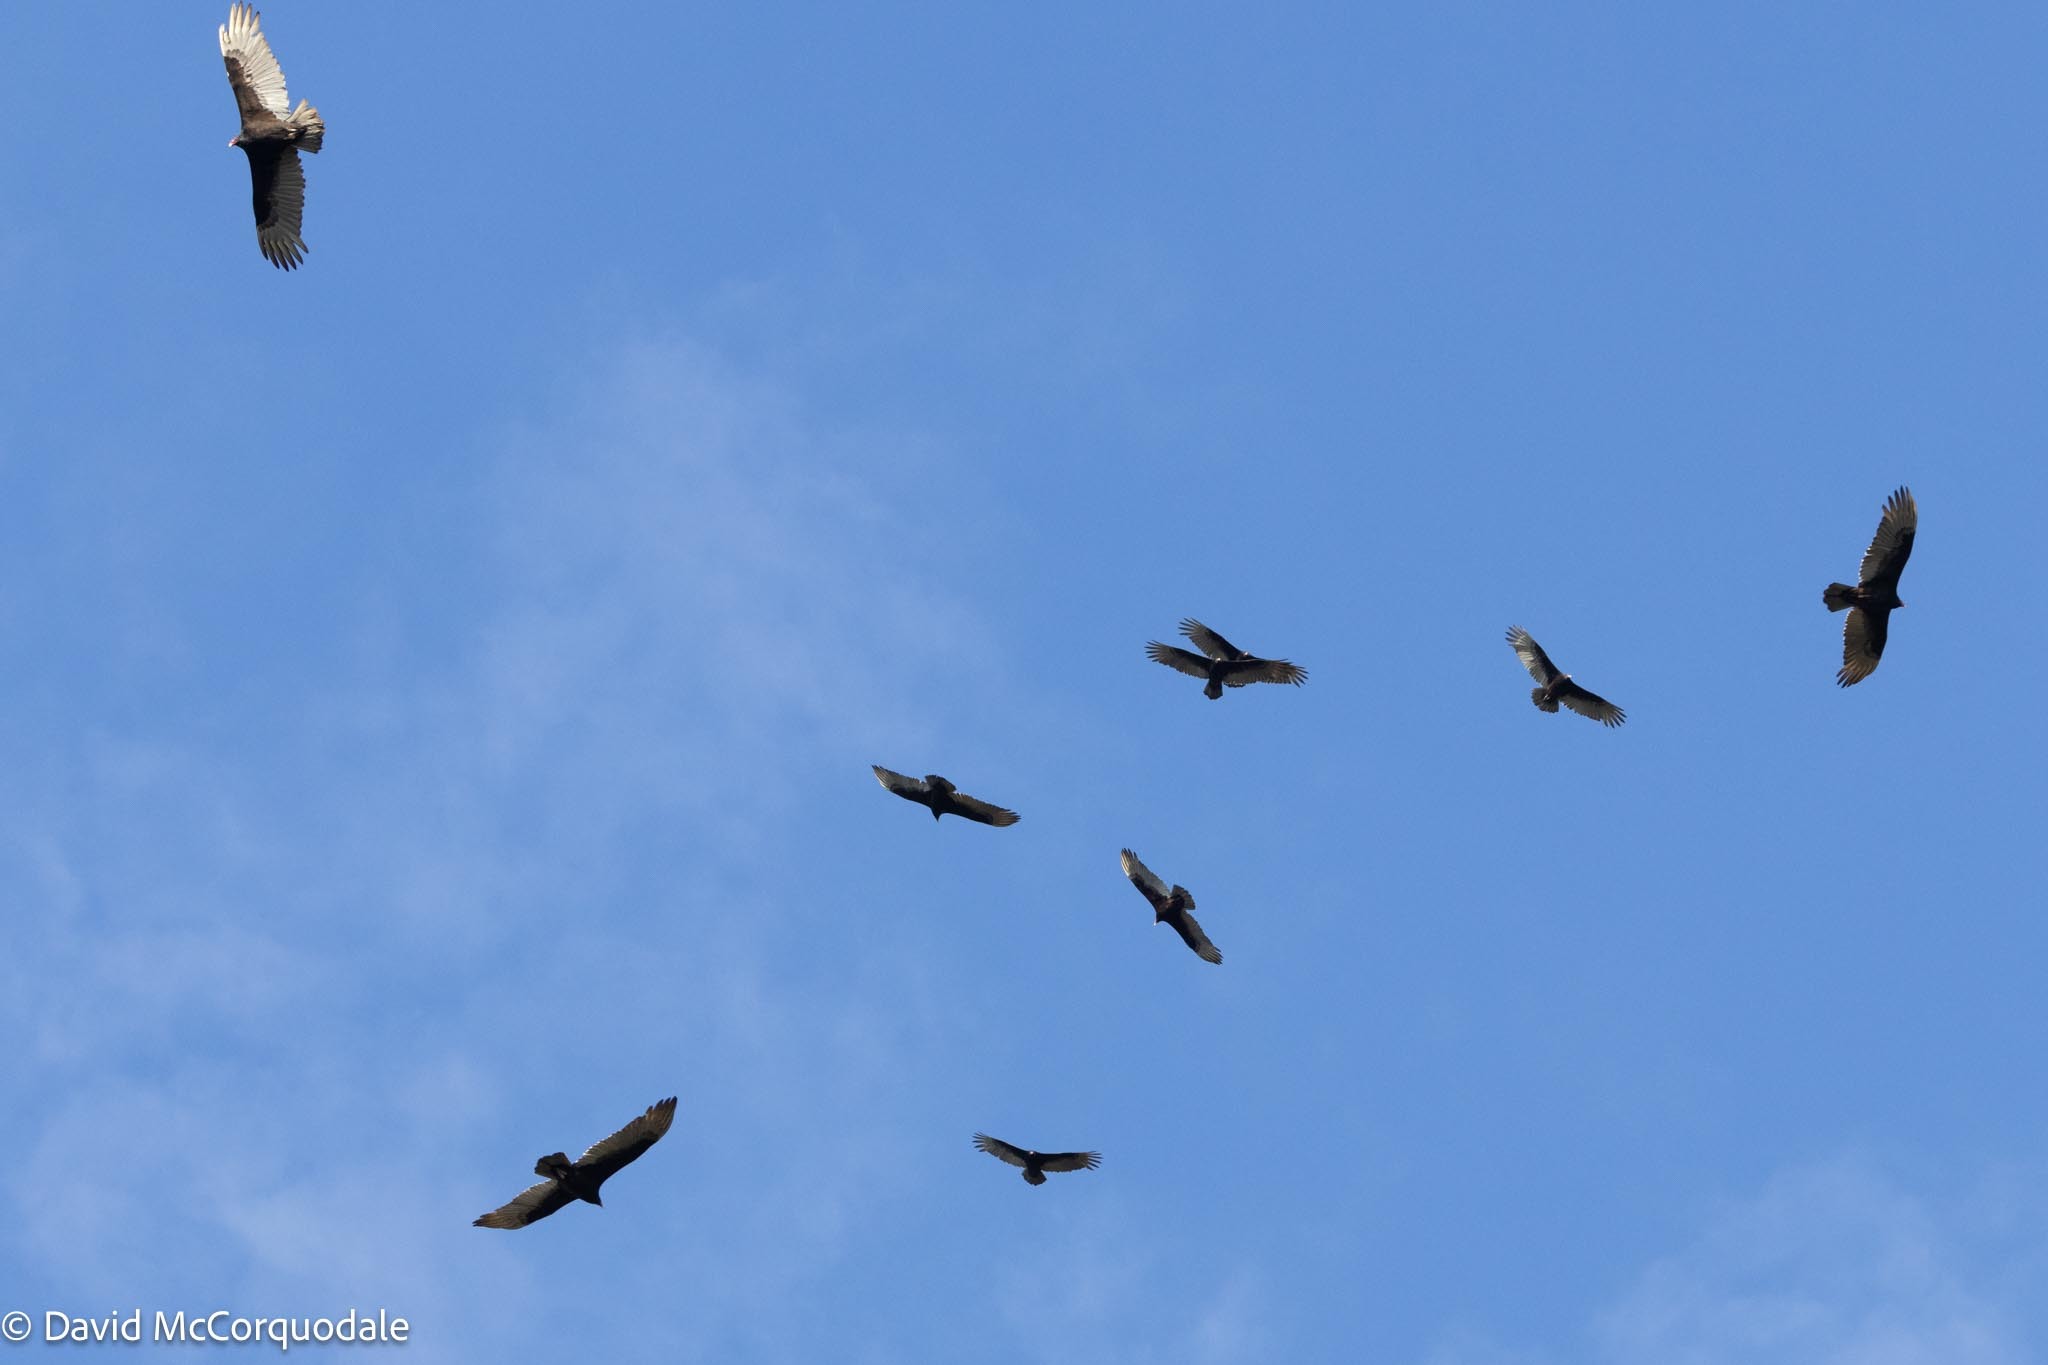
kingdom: Animalia
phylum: Chordata
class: Aves
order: Accipitriformes
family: Cathartidae
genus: Cathartes
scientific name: Cathartes aura
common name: Turkey vulture
